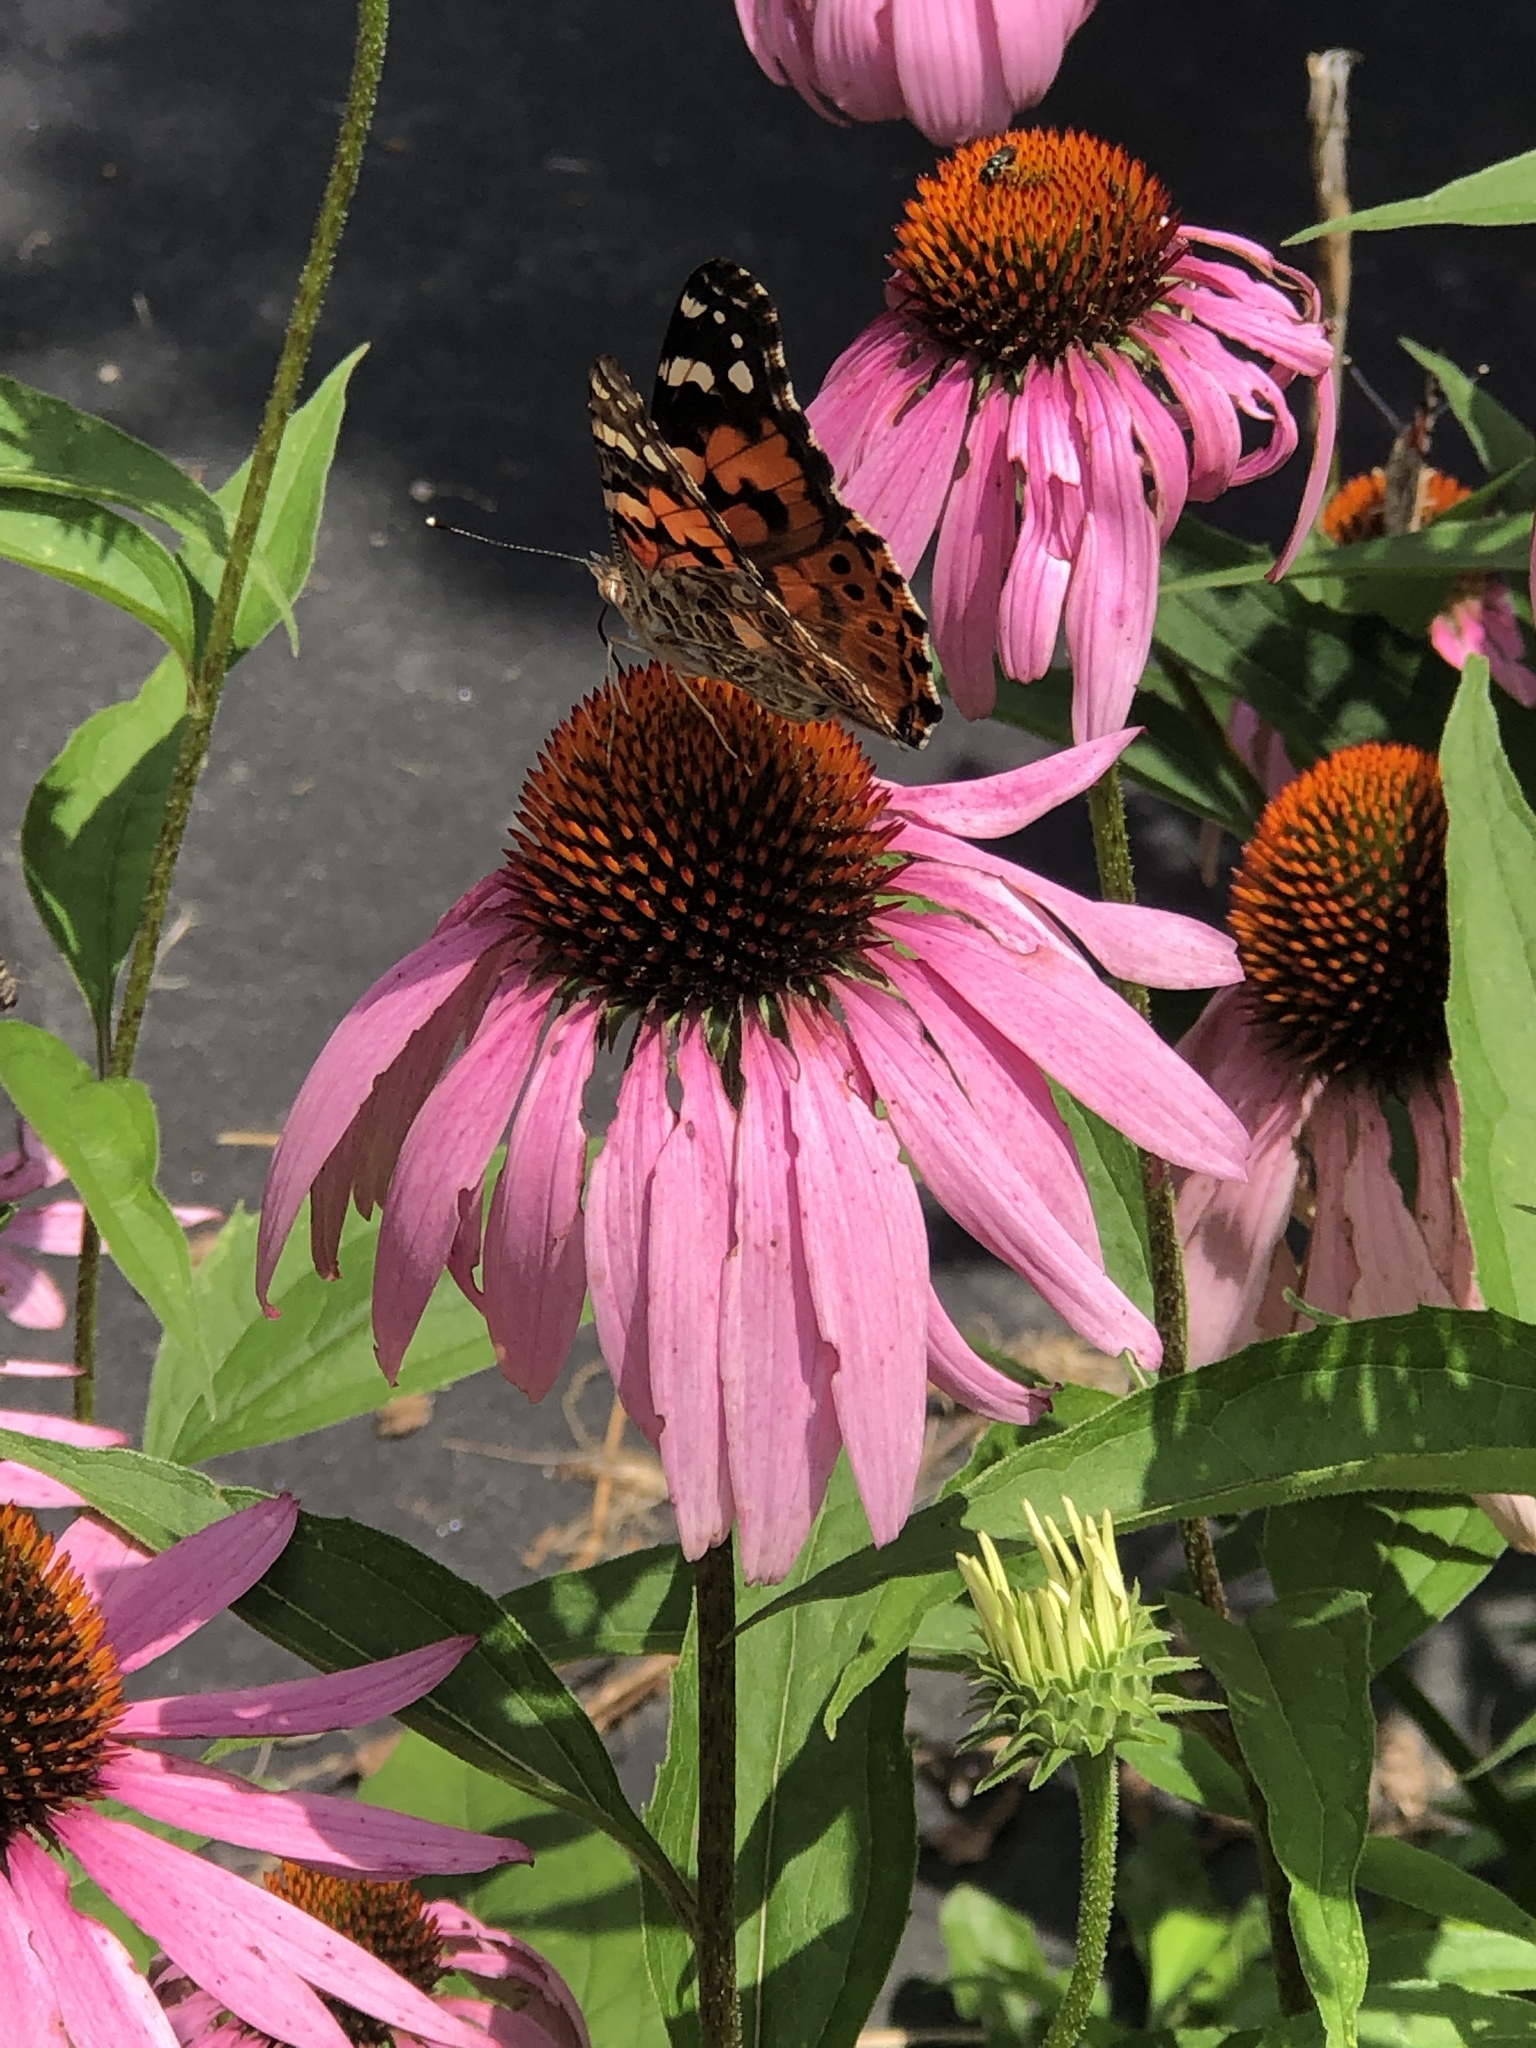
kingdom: Animalia
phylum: Arthropoda
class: Insecta
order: Lepidoptera
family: Nymphalidae
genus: Vanessa
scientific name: Vanessa cardui
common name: Painted lady
